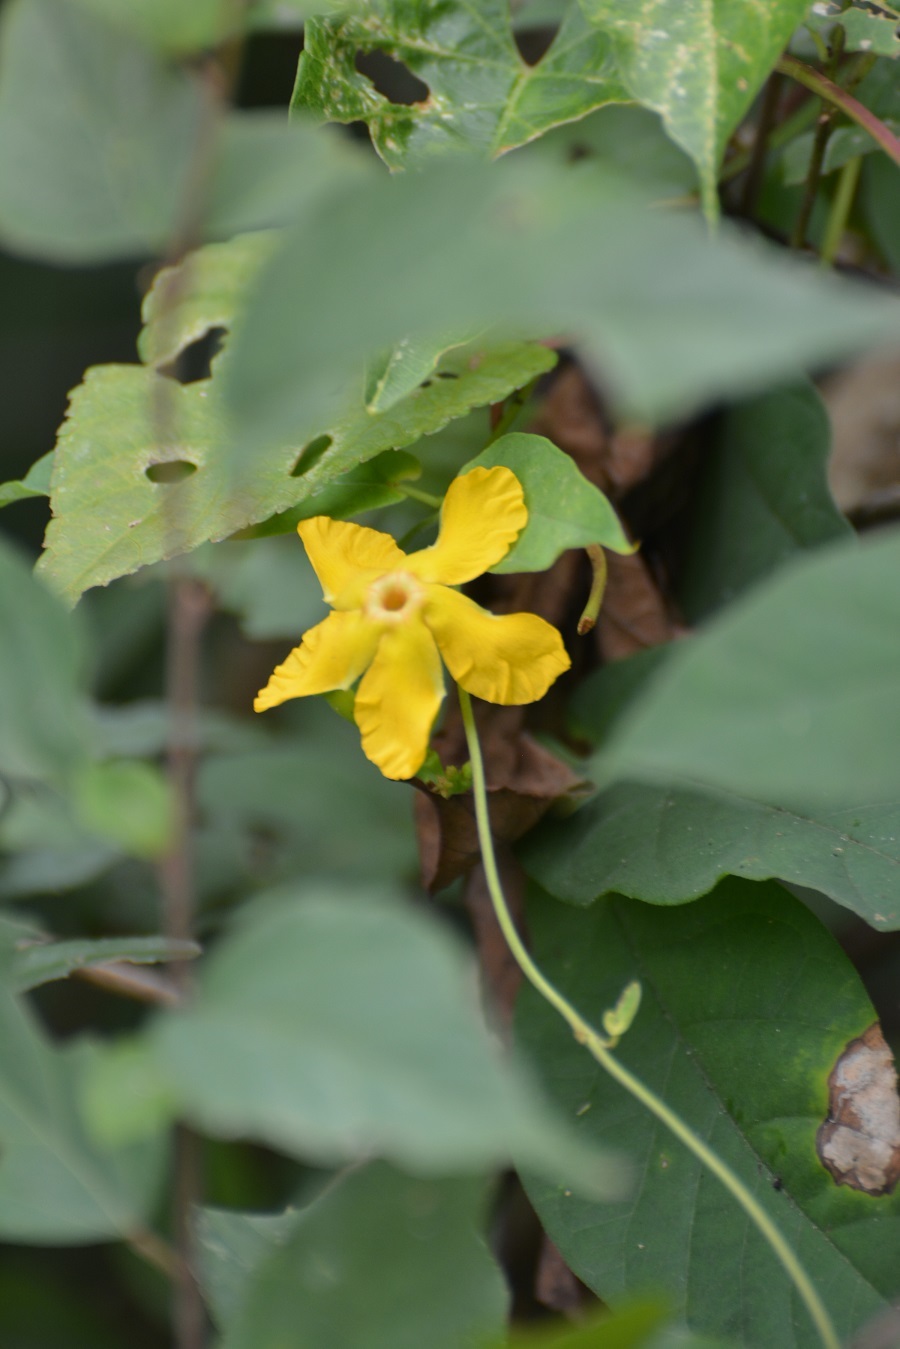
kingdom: Plantae
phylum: Tracheophyta
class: Magnoliopsida
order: Gentianales
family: Apocynaceae
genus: Mandevilla
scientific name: Mandevilla subsagittata
